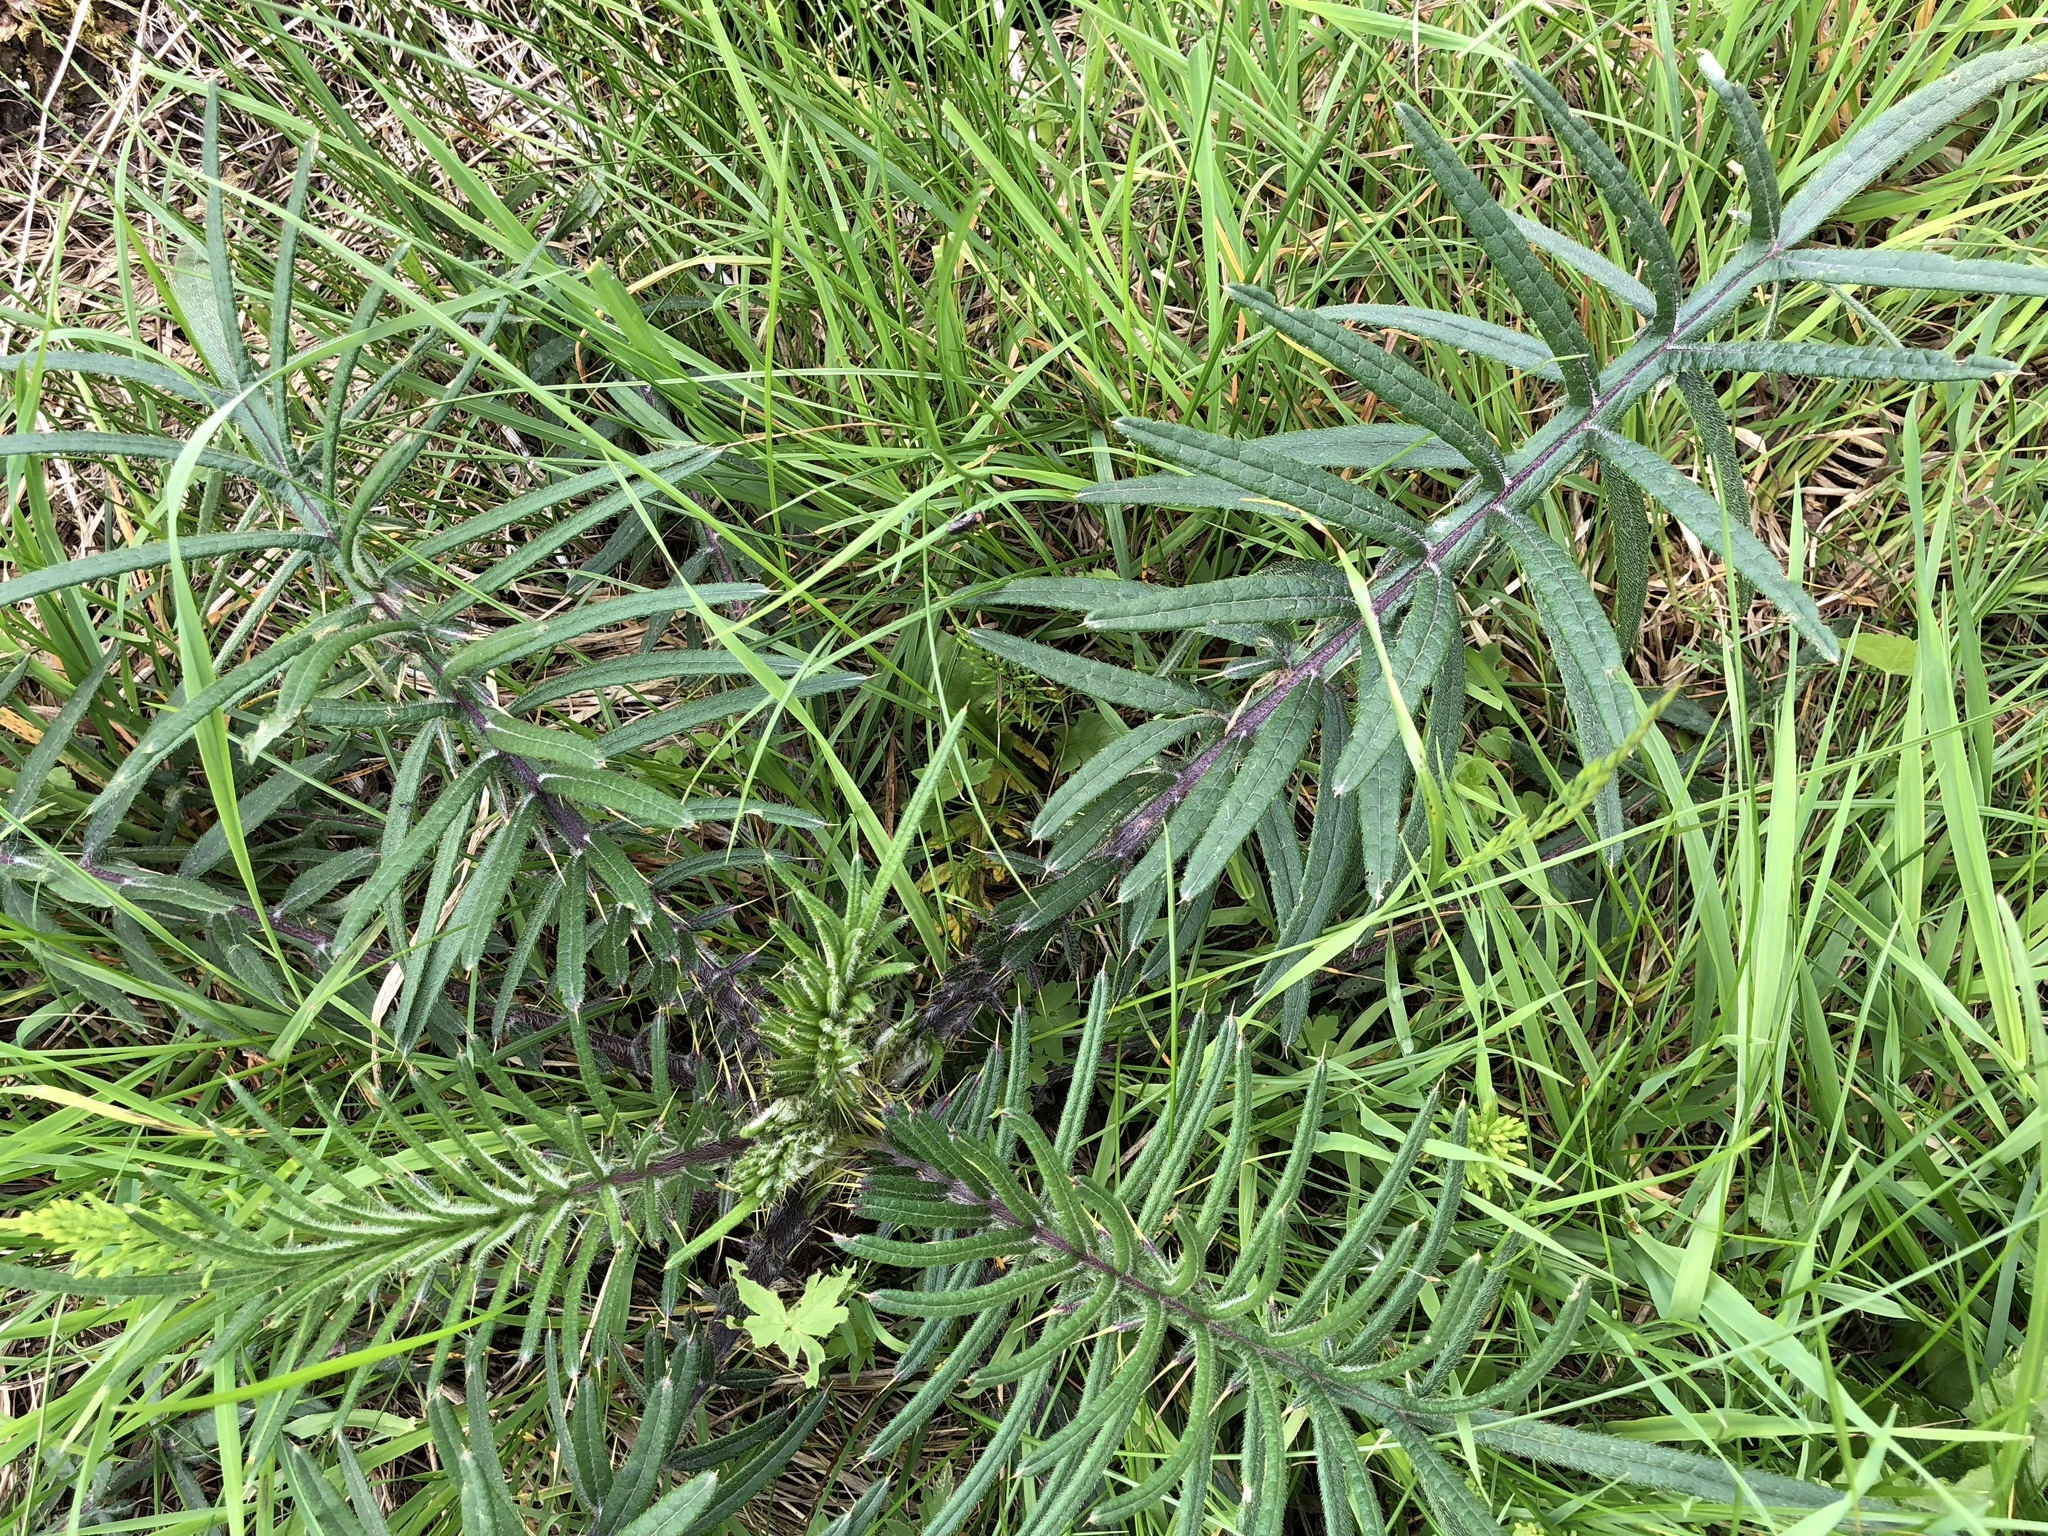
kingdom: Plantae
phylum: Tracheophyta
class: Magnoliopsida
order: Asterales
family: Asteraceae
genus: Lophiolepis
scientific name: Lophiolepis eriophora
